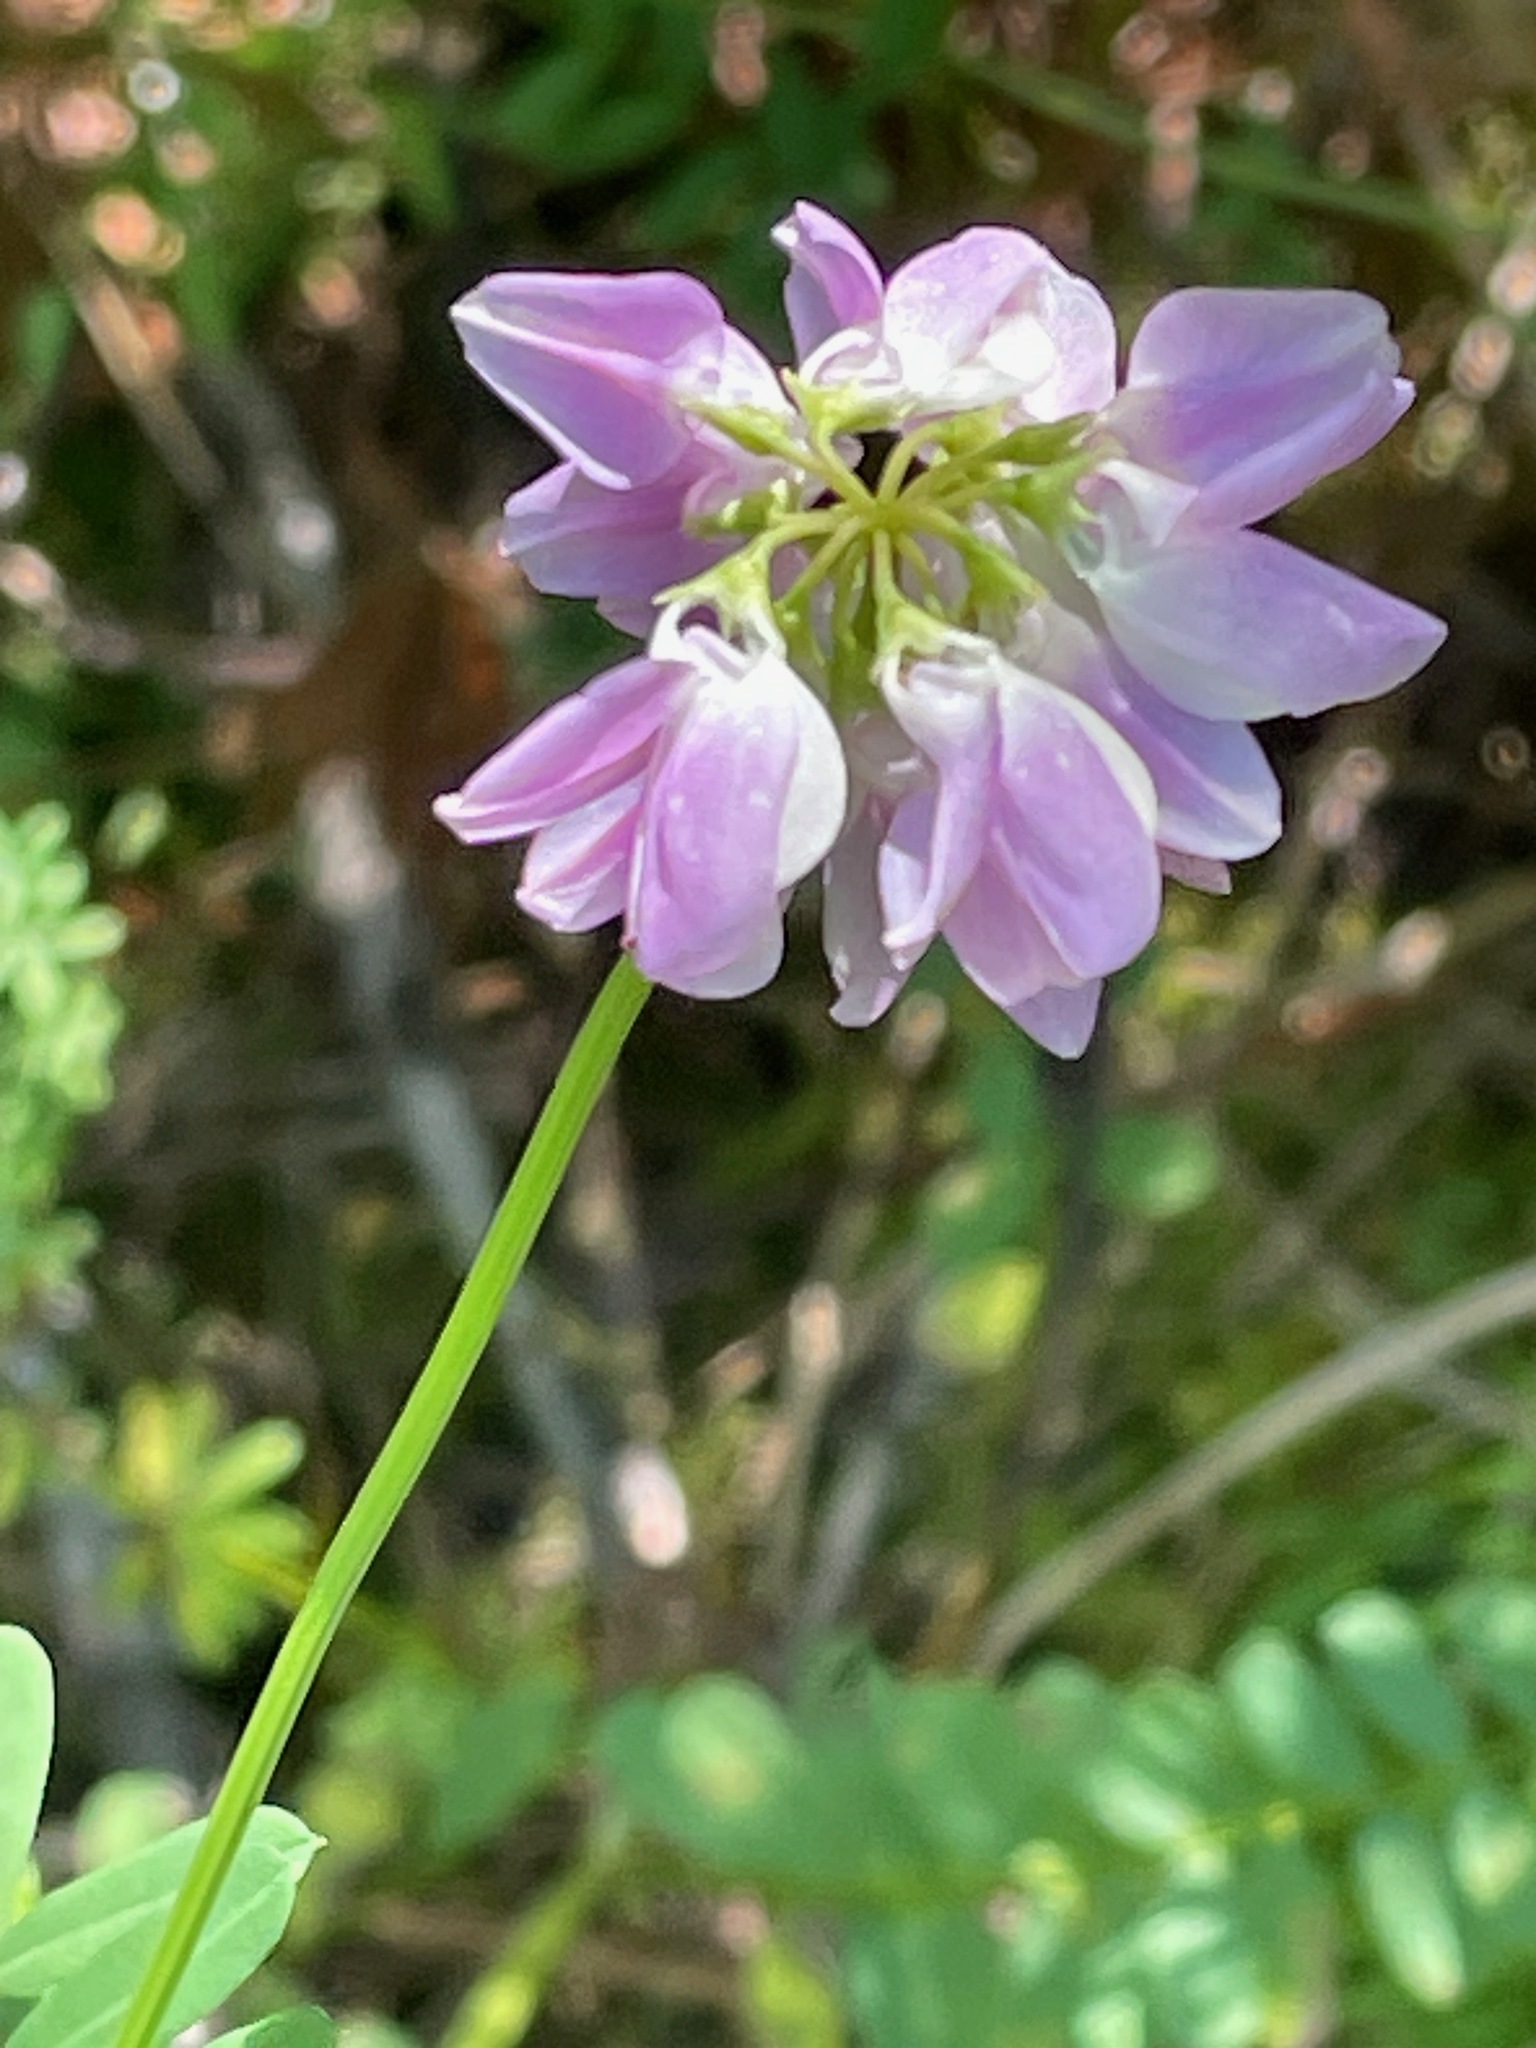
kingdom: Plantae
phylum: Tracheophyta
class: Magnoliopsida
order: Fabales
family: Fabaceae
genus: Coronilla
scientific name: Coronilla varia
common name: Crownvetch
